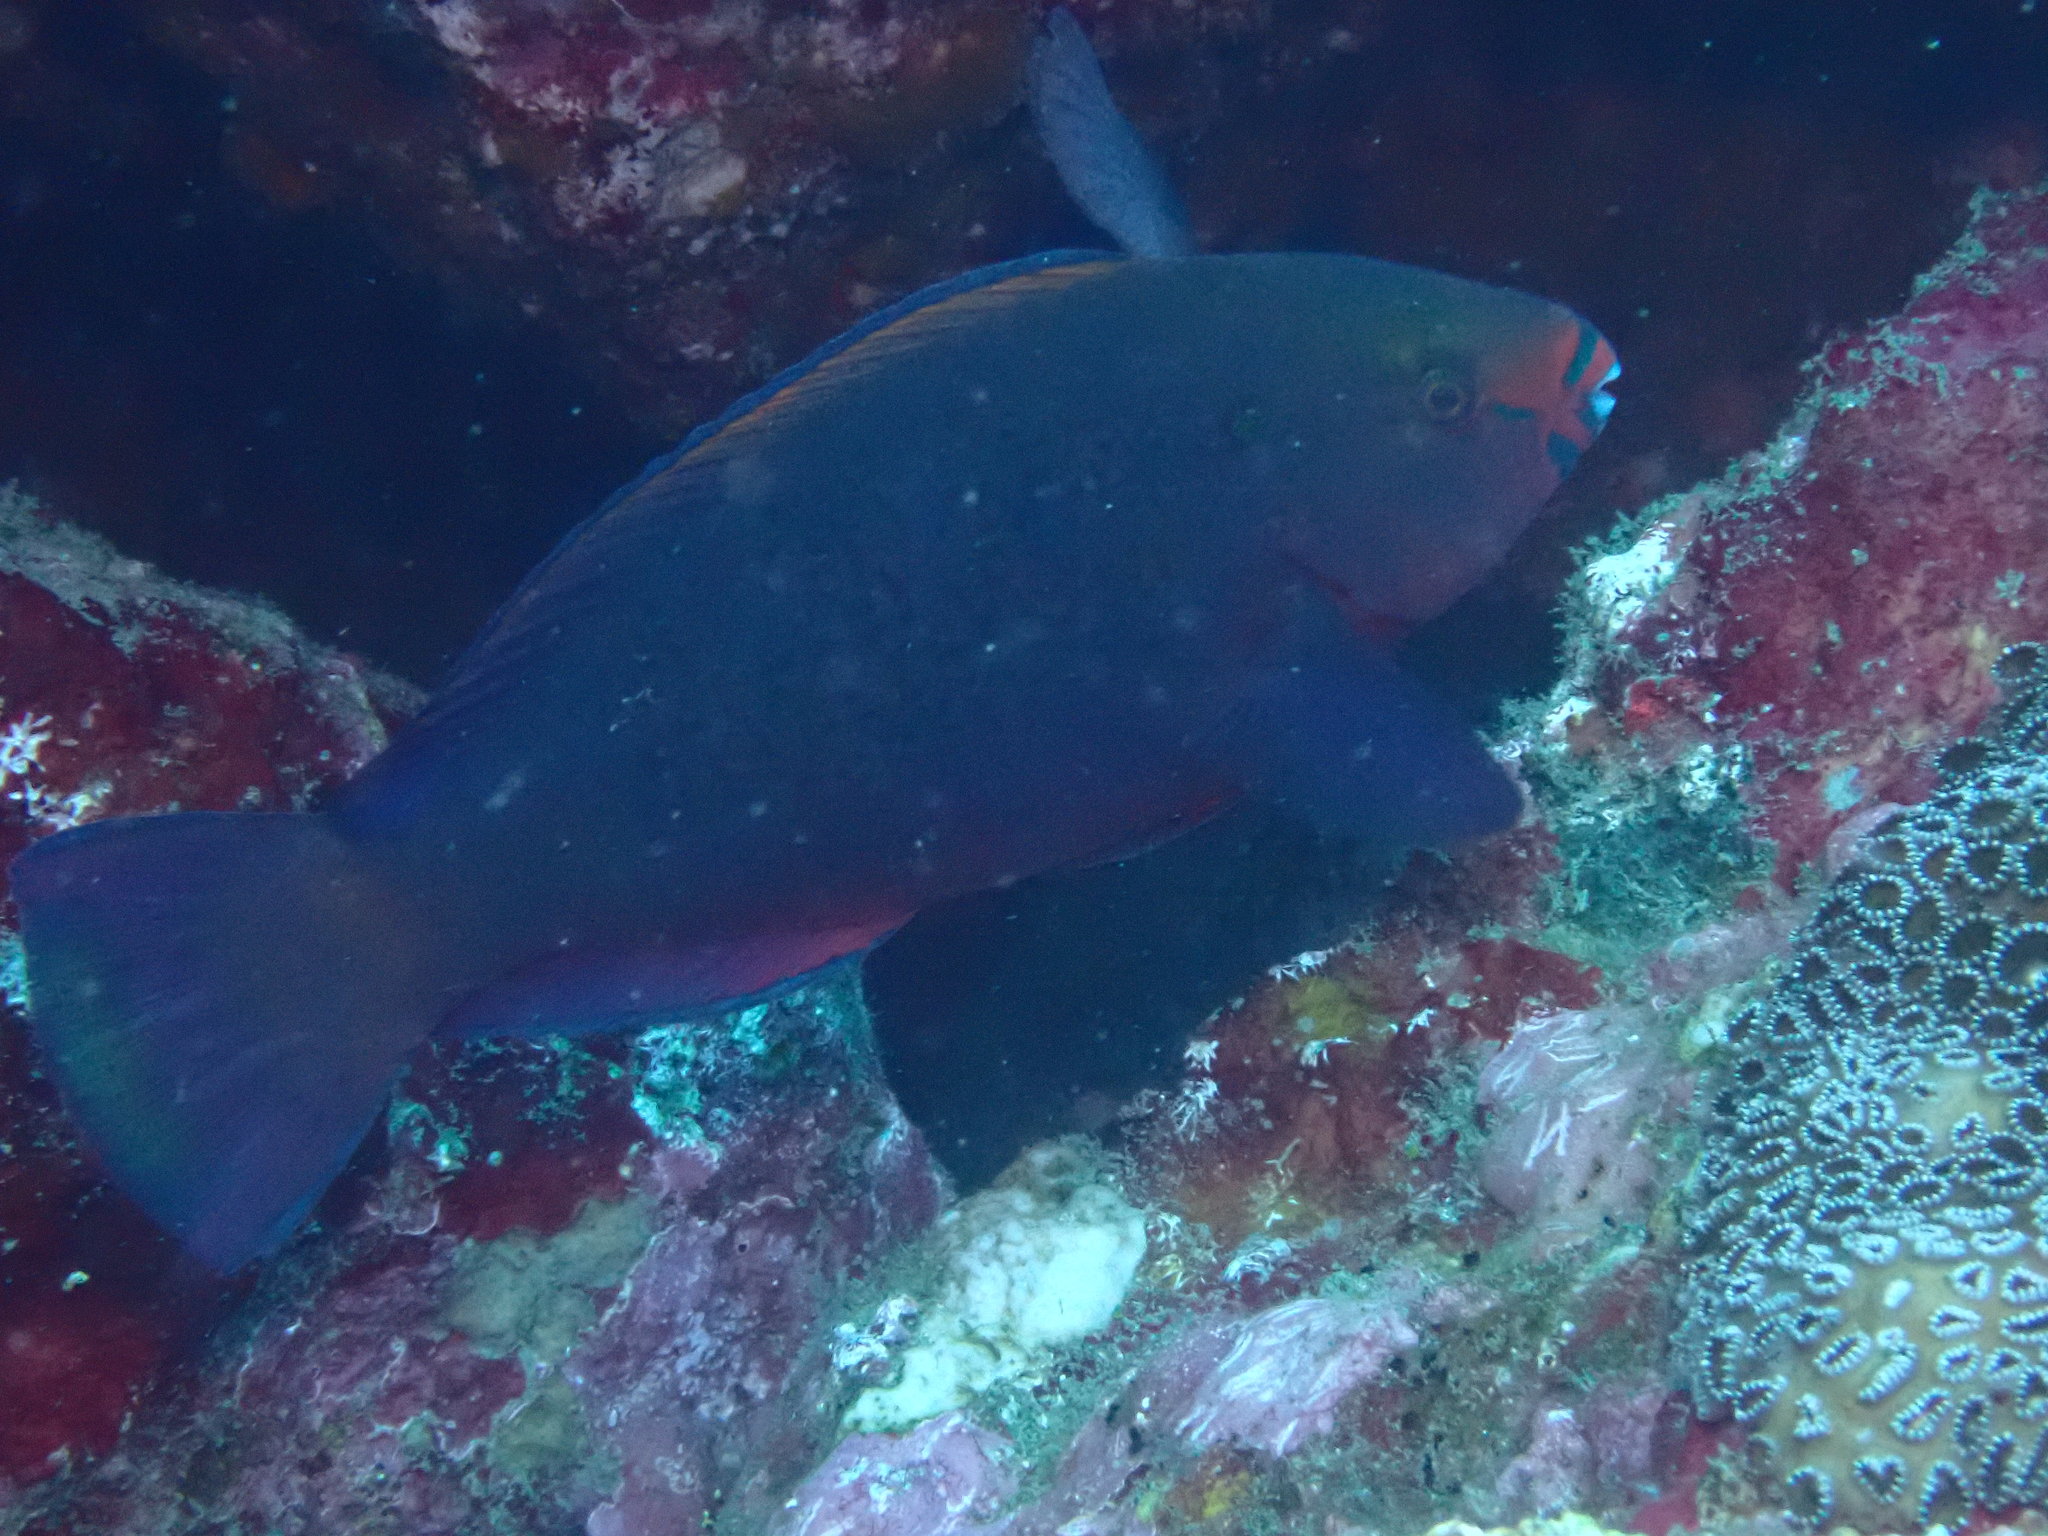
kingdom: Animalia
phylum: Chordata
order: Perciformes
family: Scaridae
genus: Scarus
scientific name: Scarus niger
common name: Dusky parrotfish
